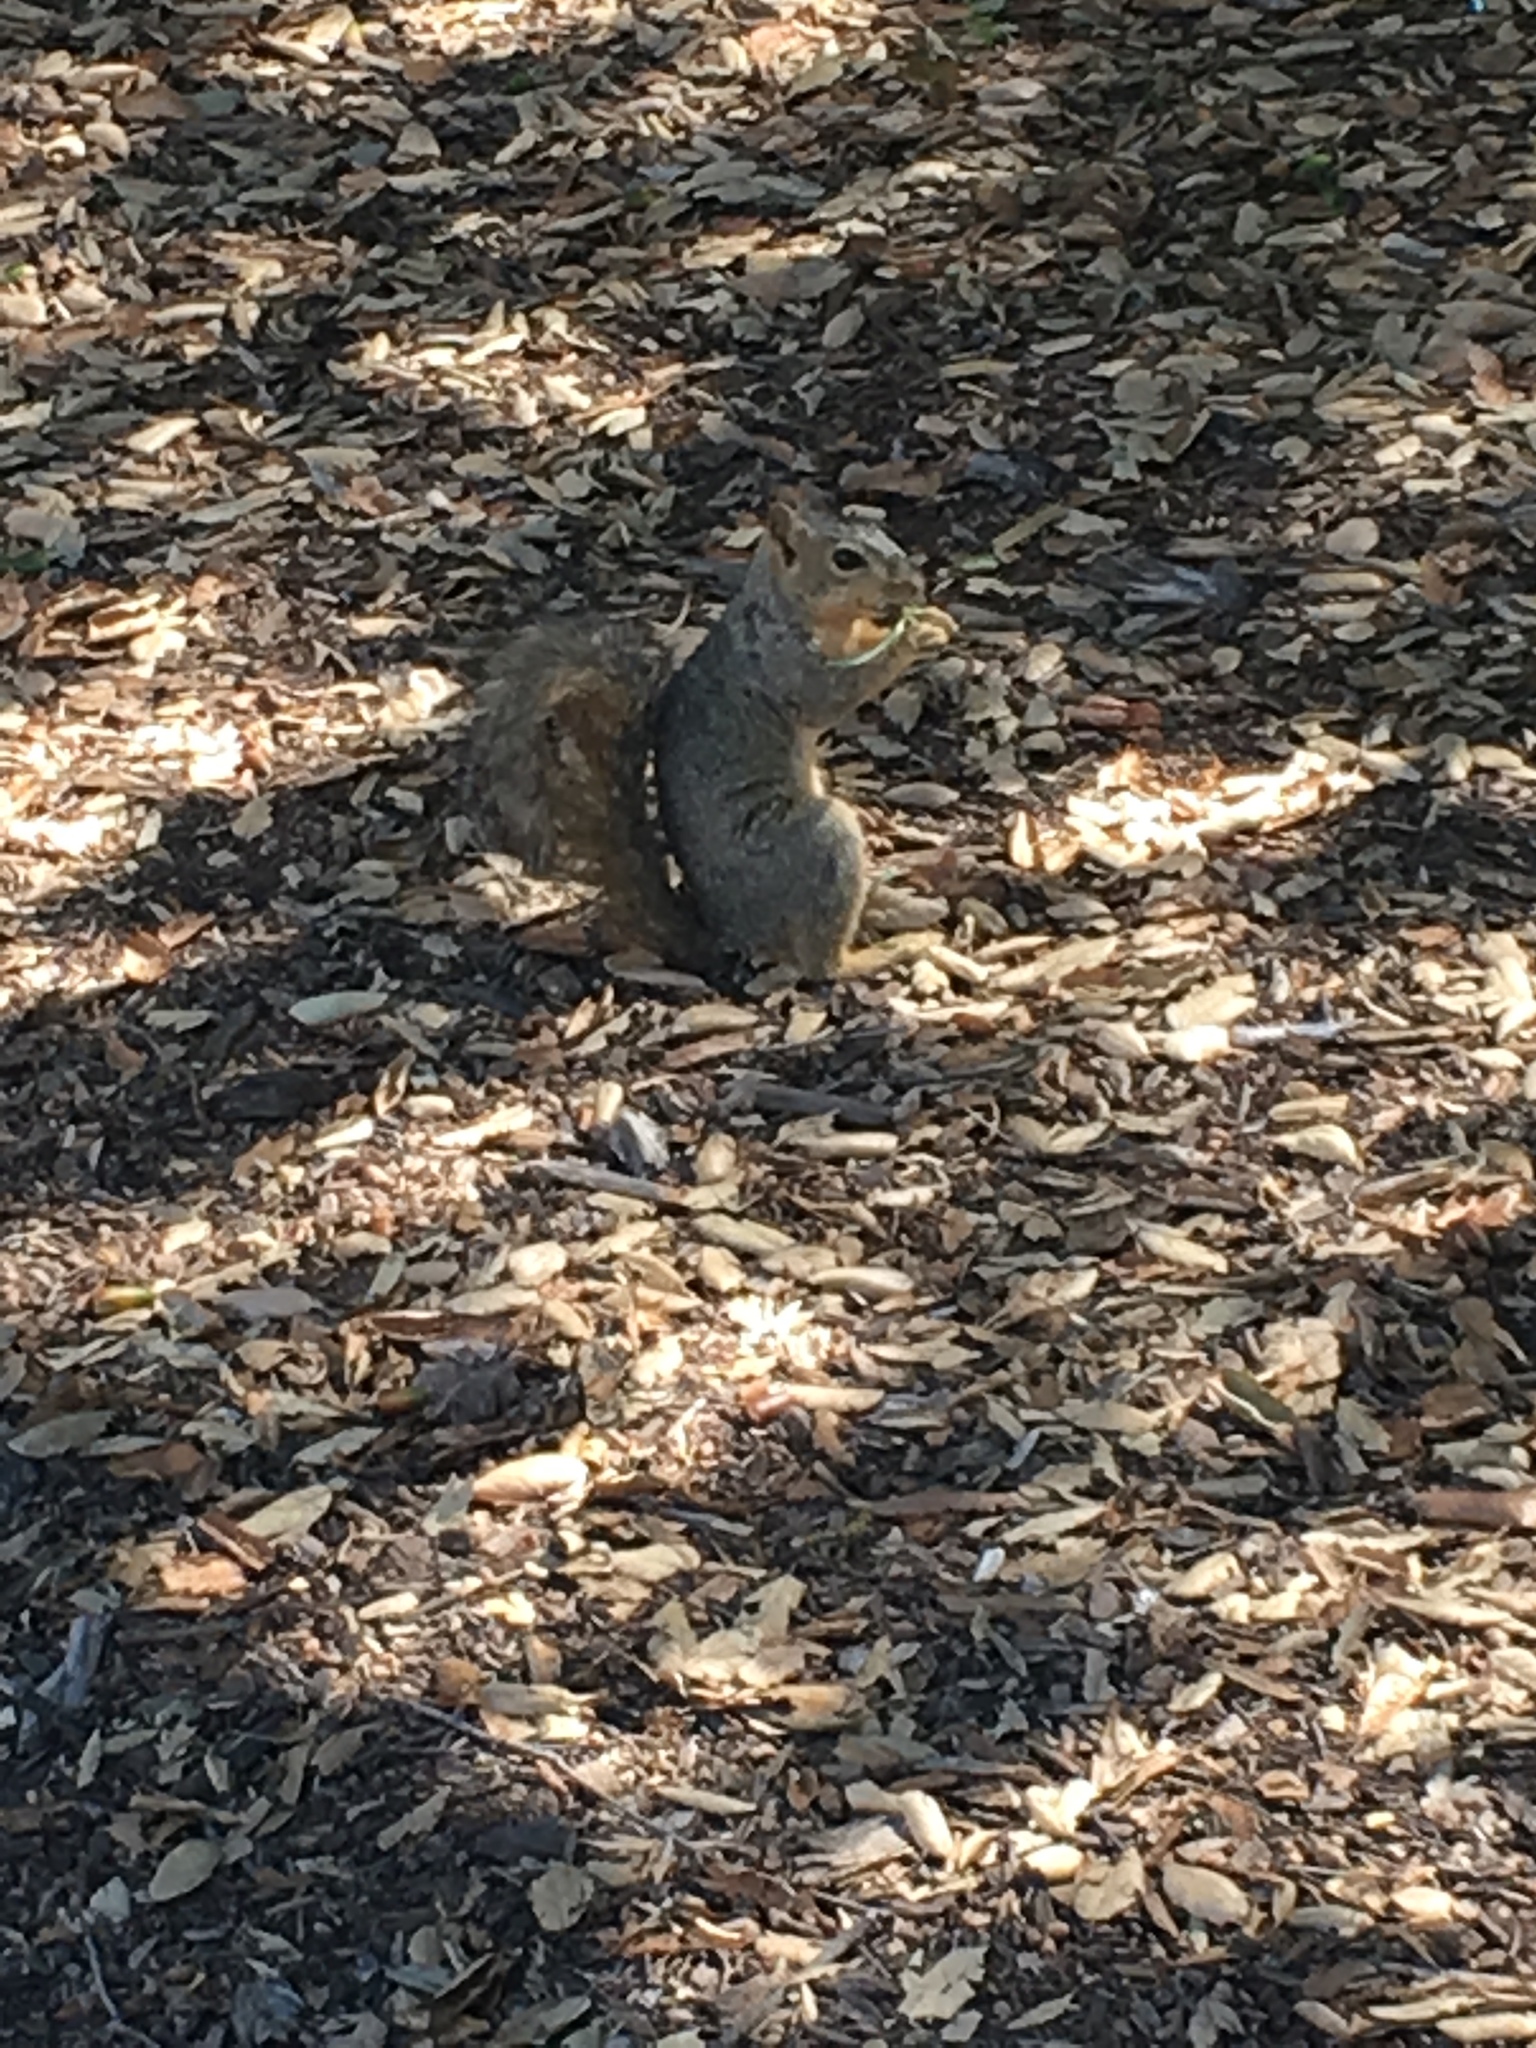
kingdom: Animalia
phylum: Chordata
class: Mammalia
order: Rodentia
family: Sciuridae
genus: Sciurus
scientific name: Sciurus niger
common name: Fox squirrel
